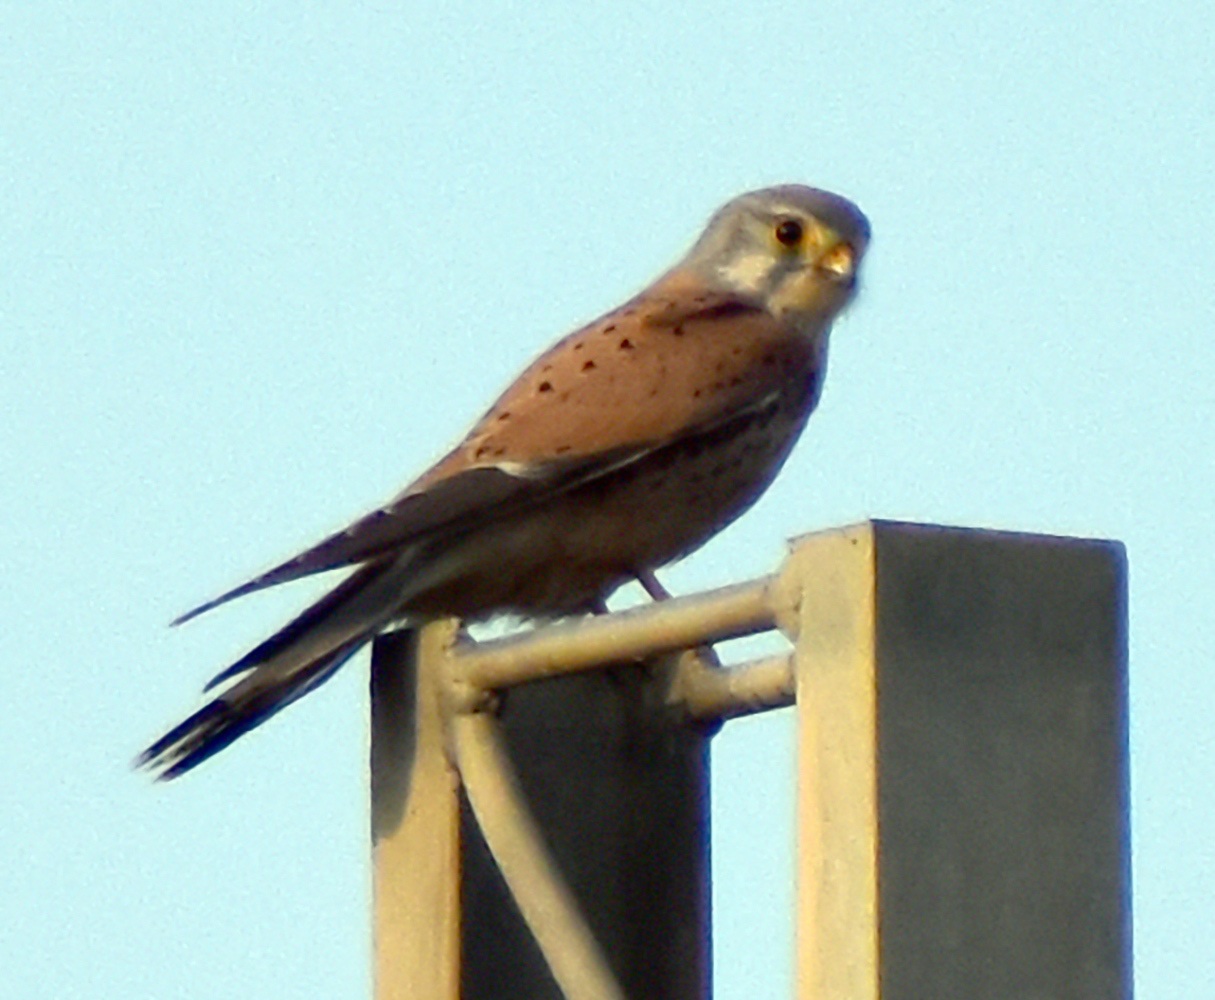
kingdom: Animalia
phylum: Chordata
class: Aves
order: Falconiformes
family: Falconidae
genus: Falco
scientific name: Falco tinnunculus
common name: Common kestrel
